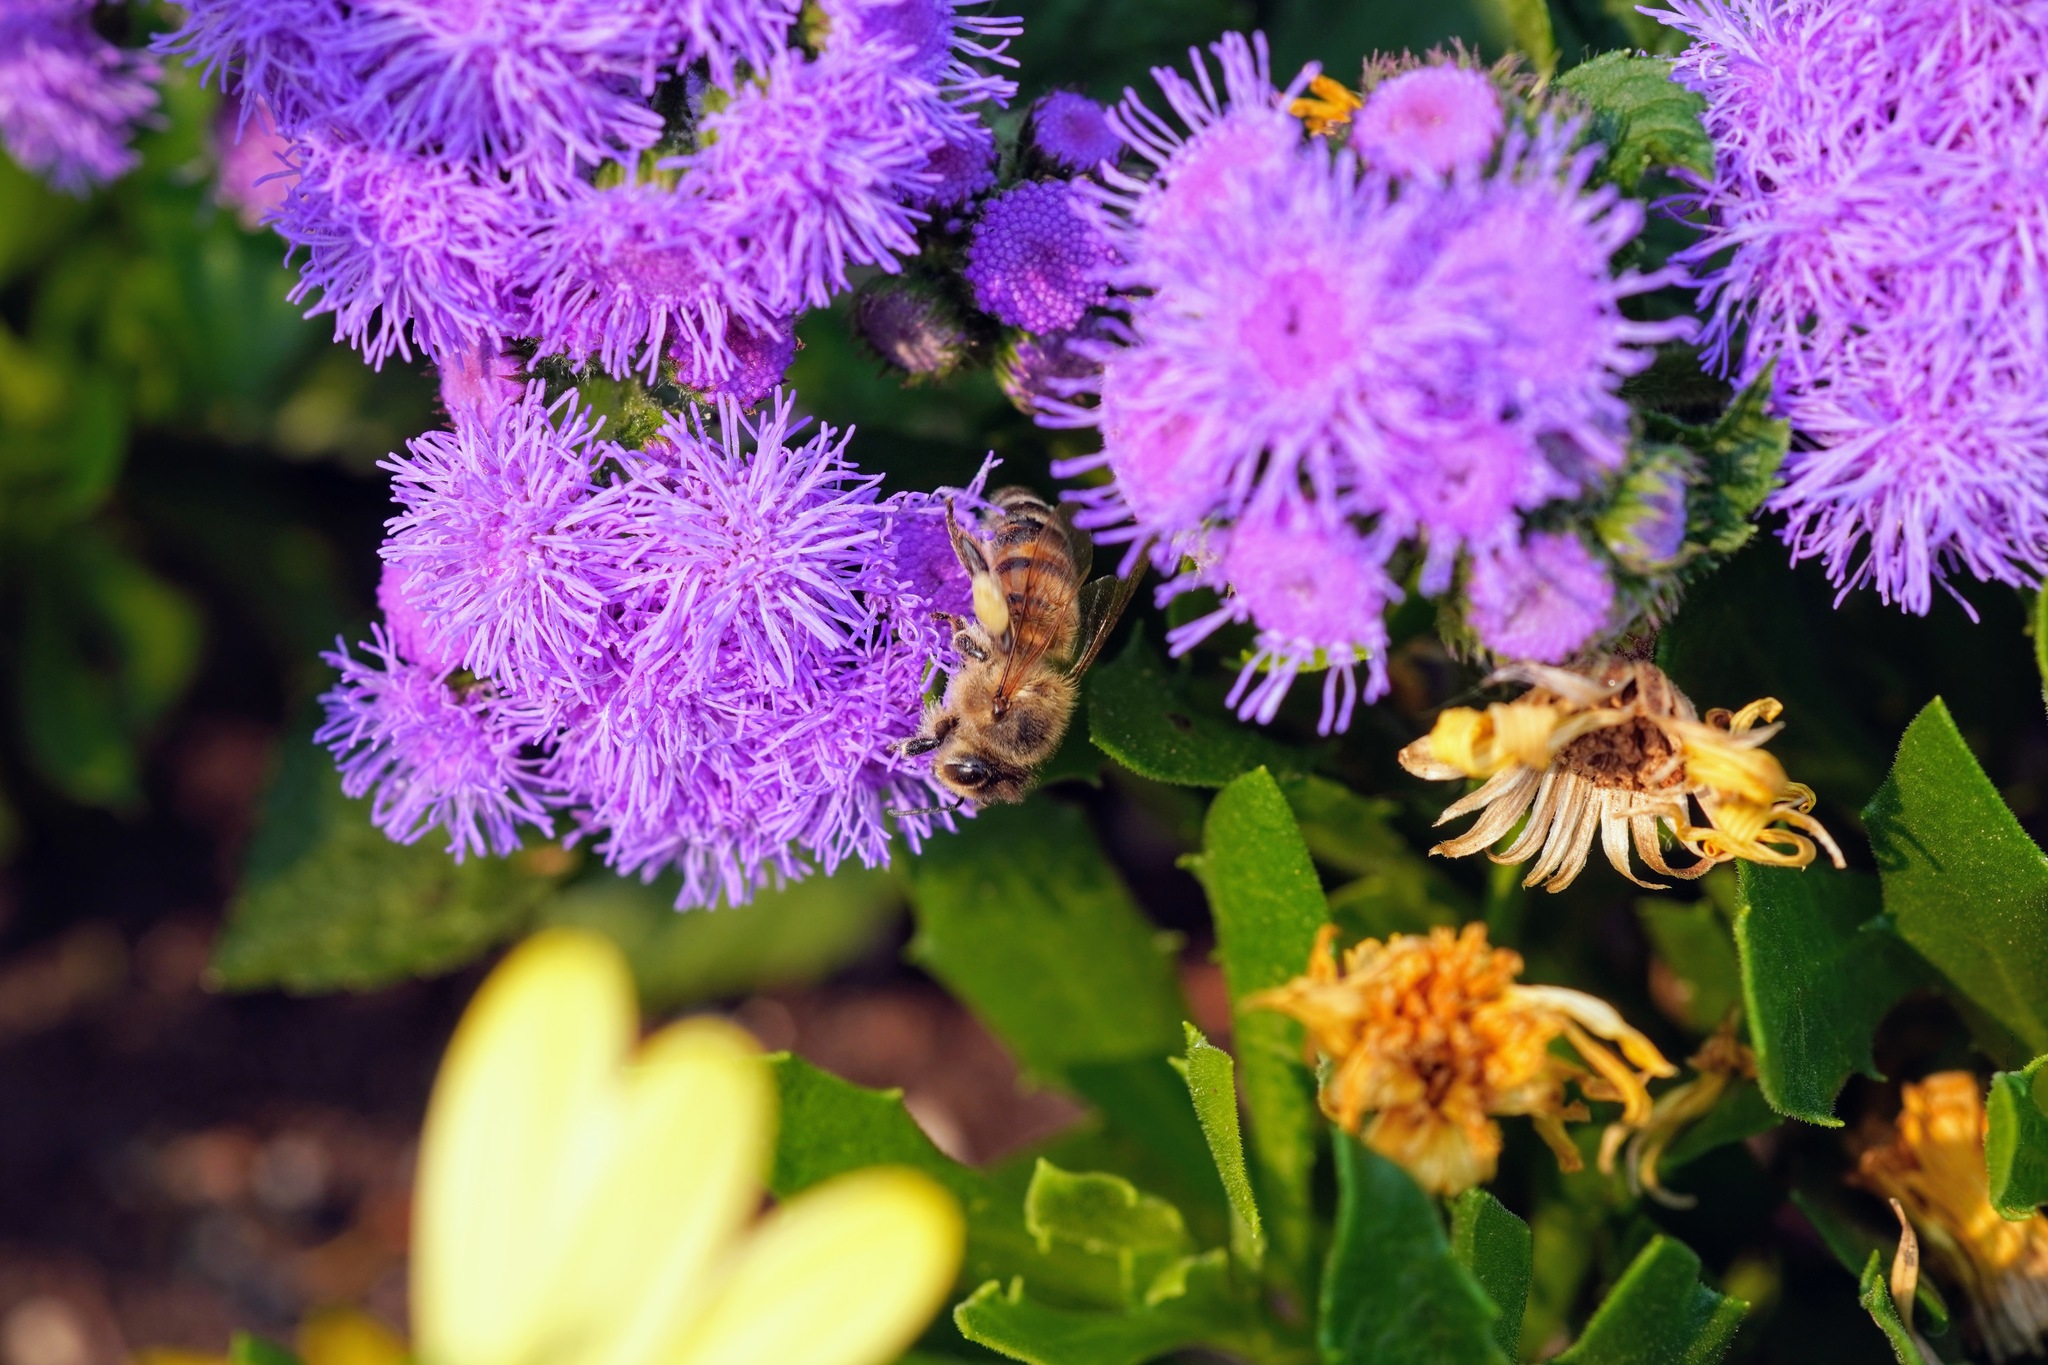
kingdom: Animalia
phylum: Arthropoda
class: Insecta
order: Hymenoptera
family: Apidae
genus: Apis
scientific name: Apis mellifera
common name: Honey bee
